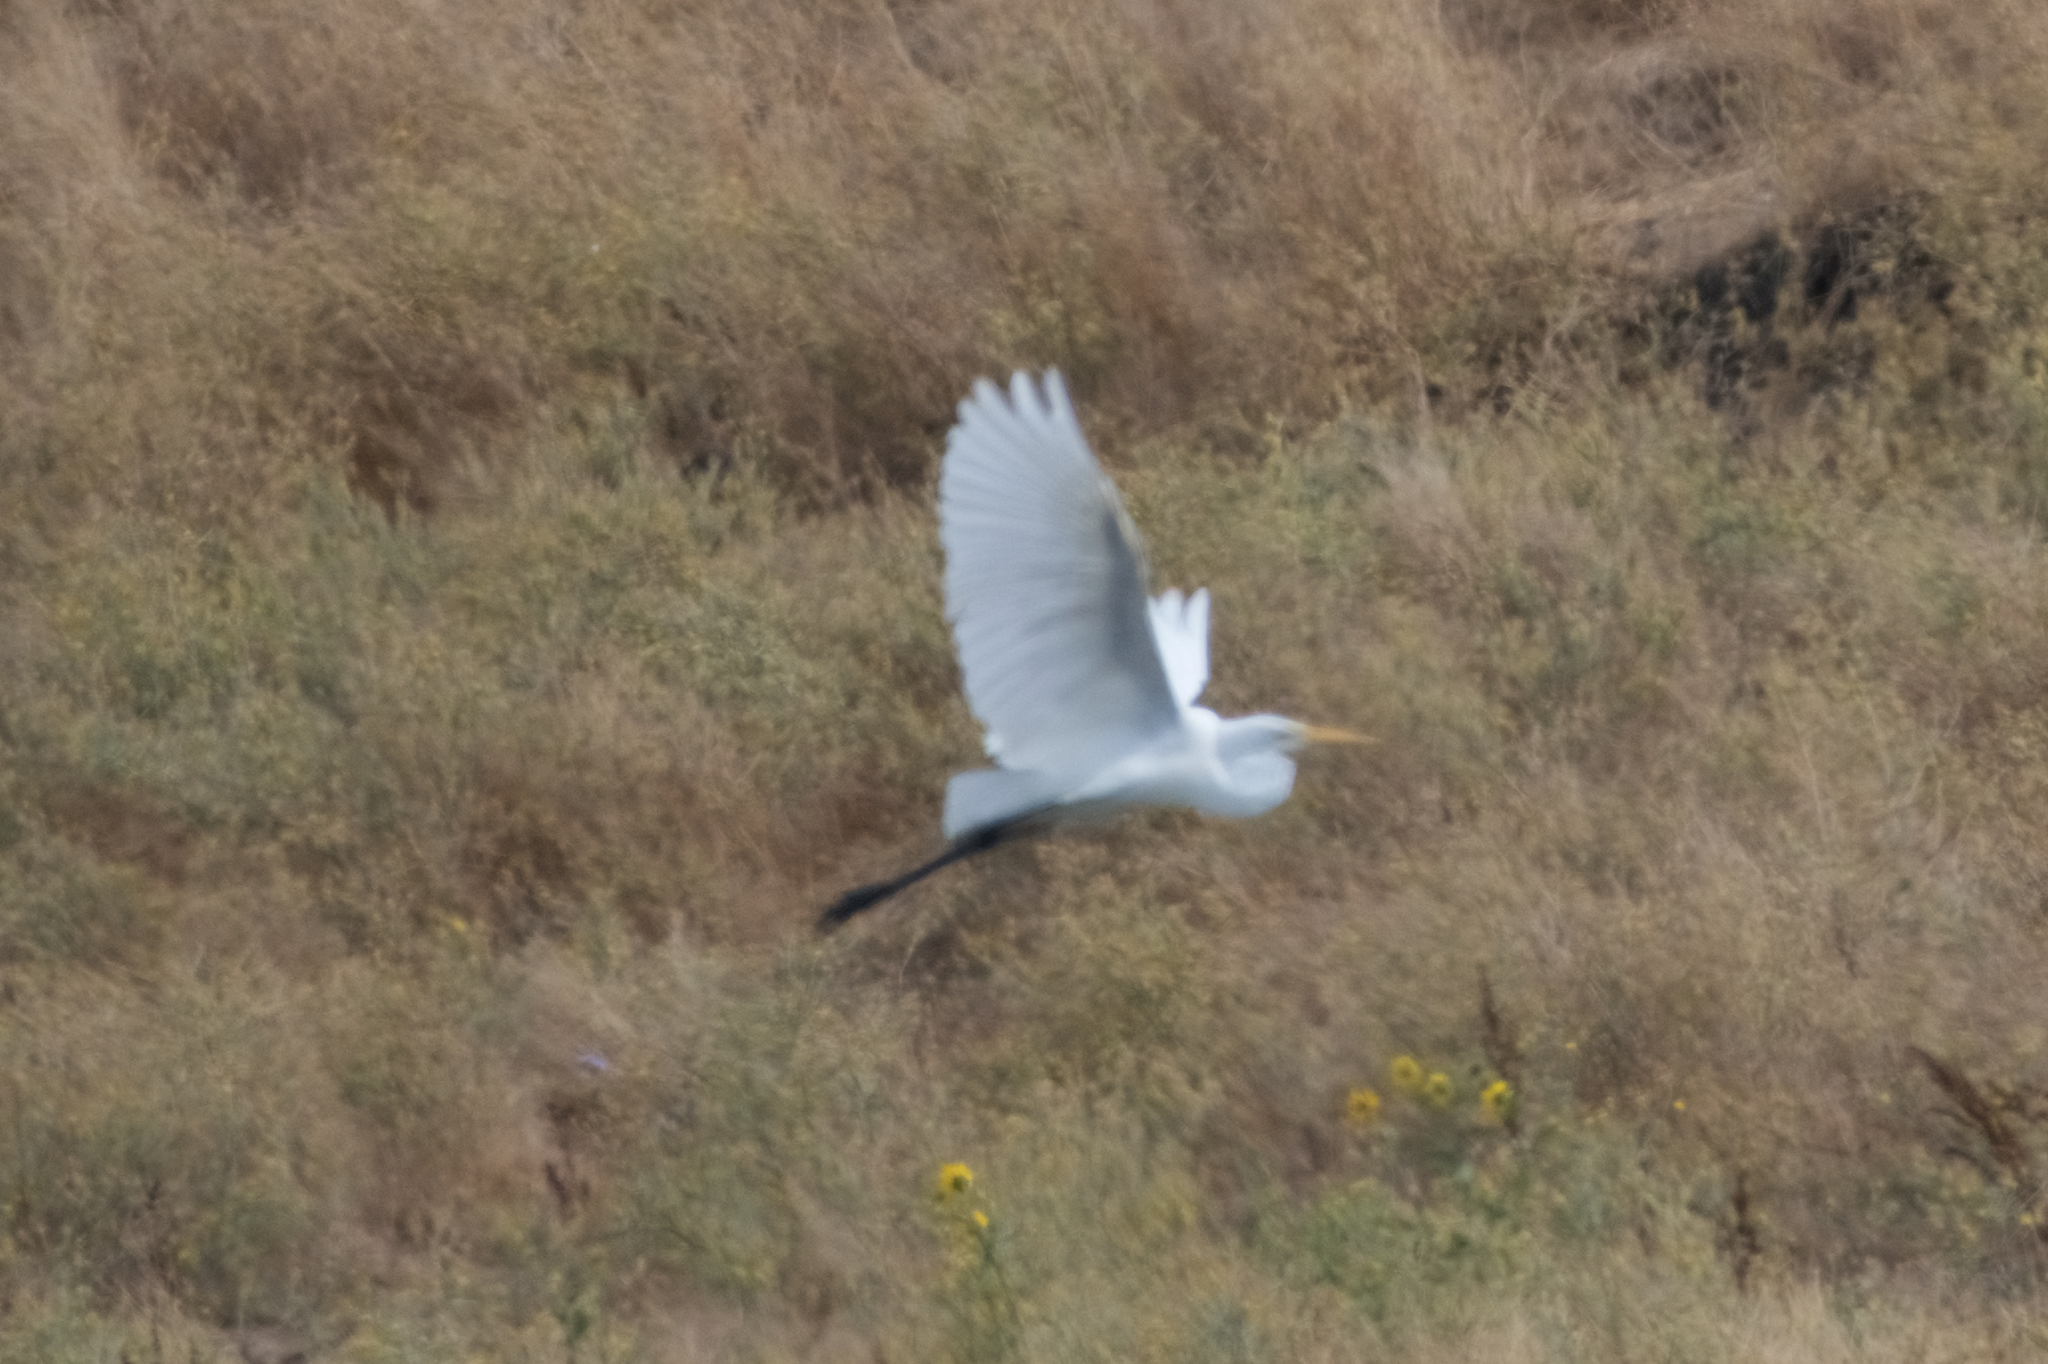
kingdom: Animalia
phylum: Chordata
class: Aves
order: Pelecaniformes
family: Ardeidae
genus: Ardea
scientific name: Ardea alba
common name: Great egret
